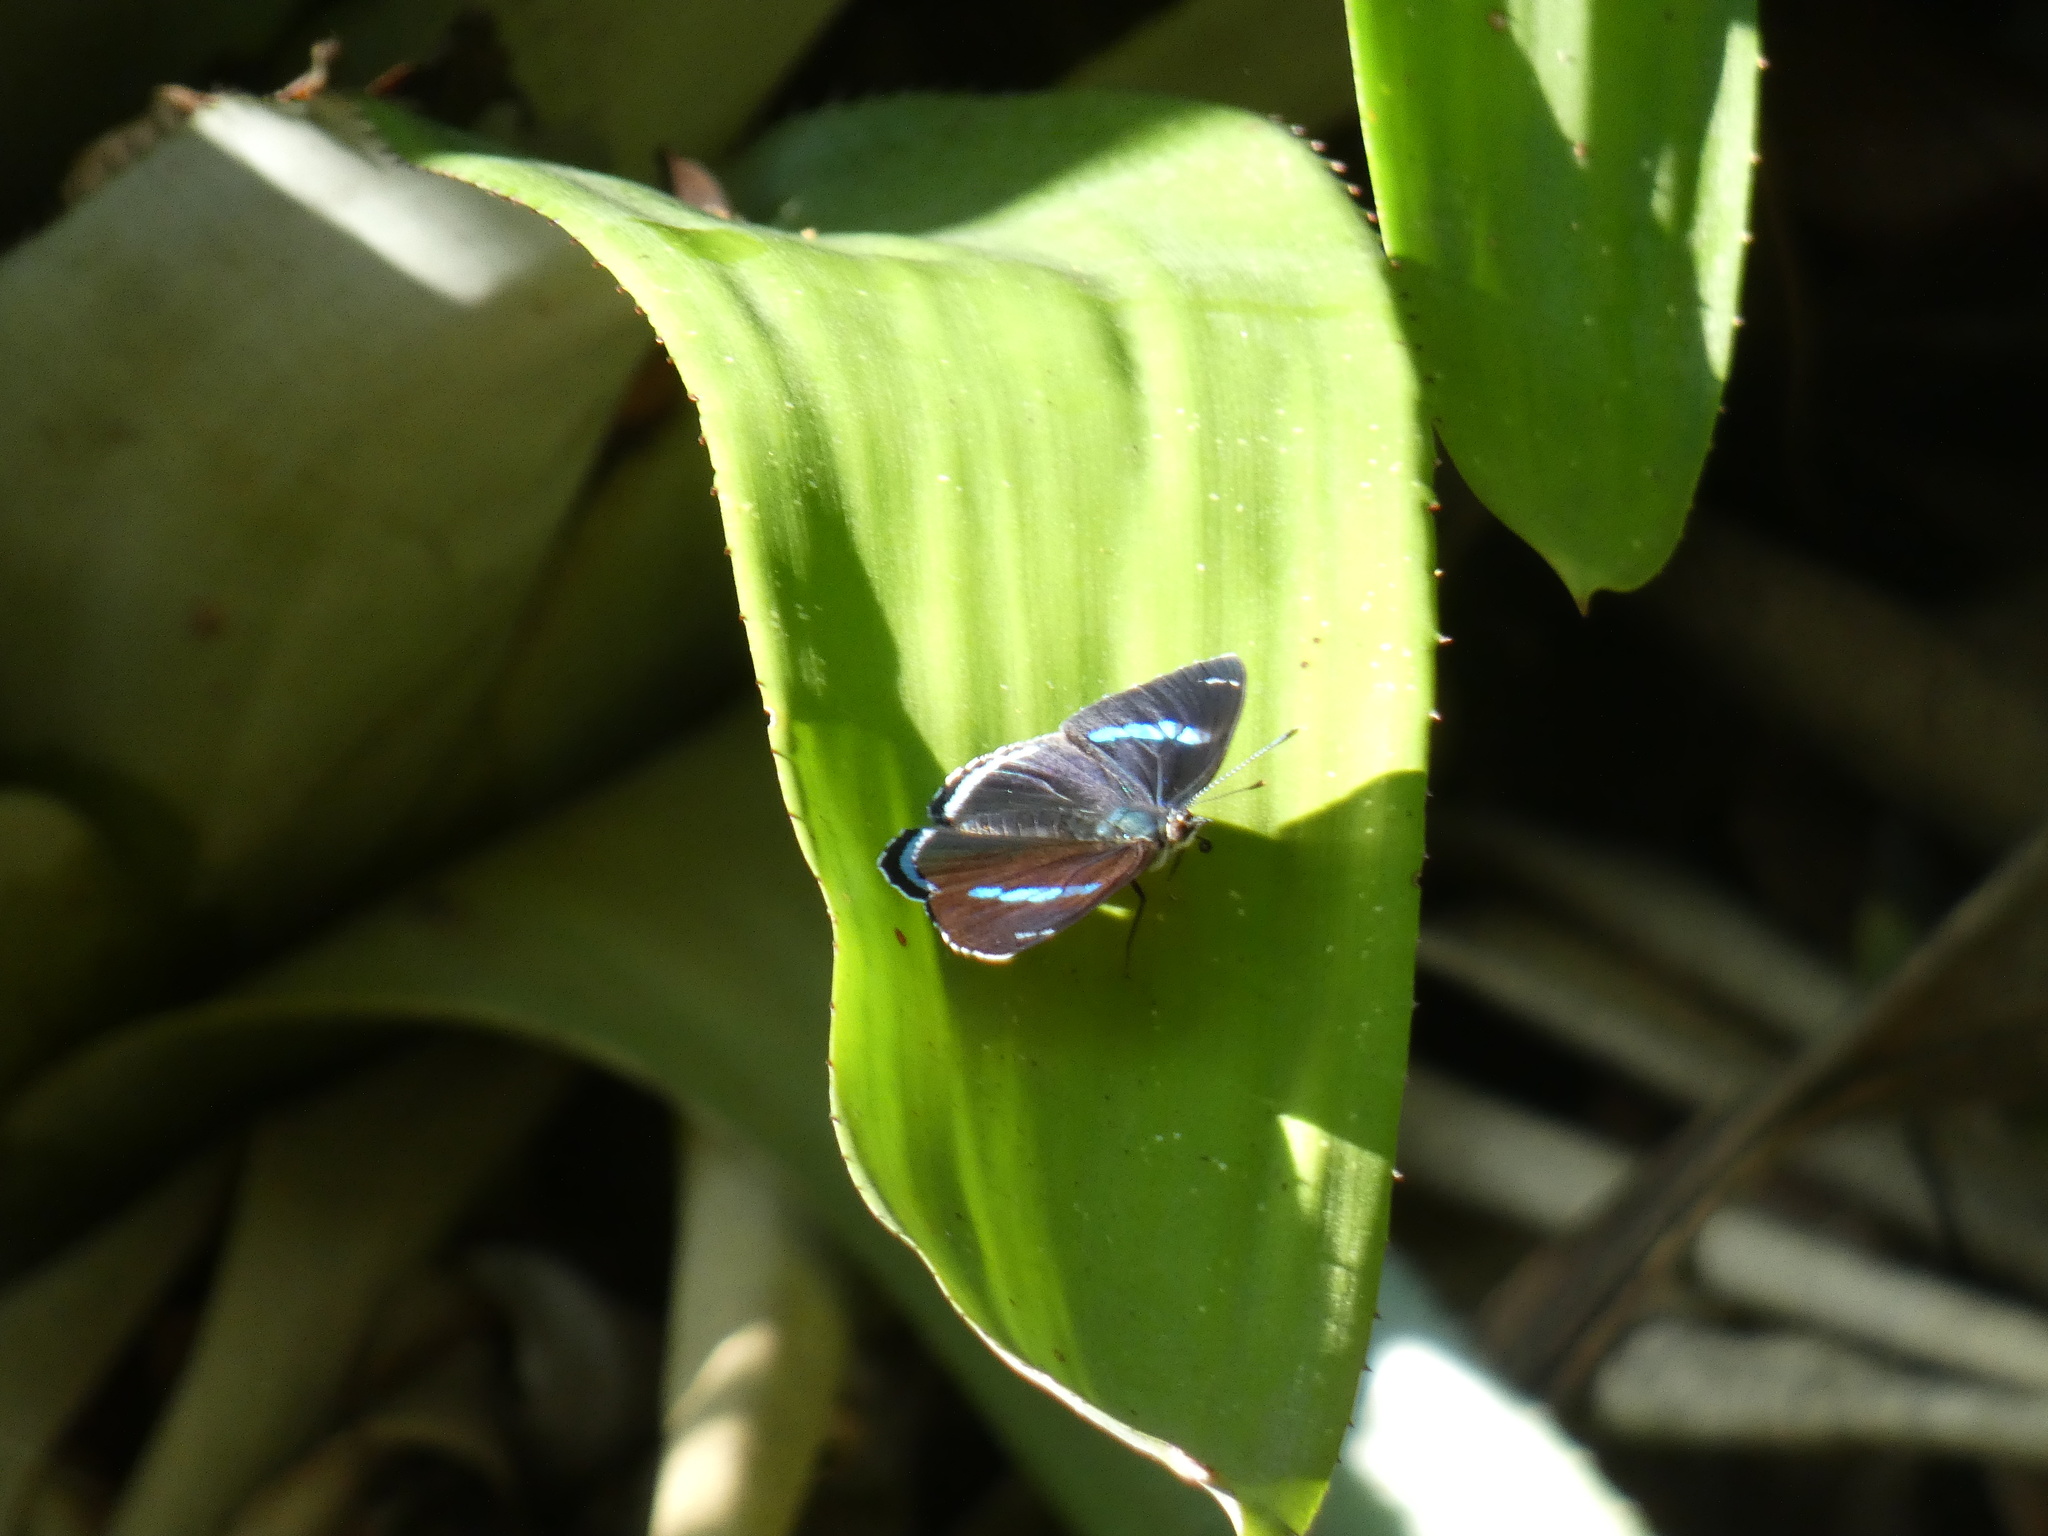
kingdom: Animalia
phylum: Arthropoda
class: Insecta
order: Lepidoptera
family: Nymphalidae
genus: Diaethria
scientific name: Diaethria clymena
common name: Widespread eighty-eight
